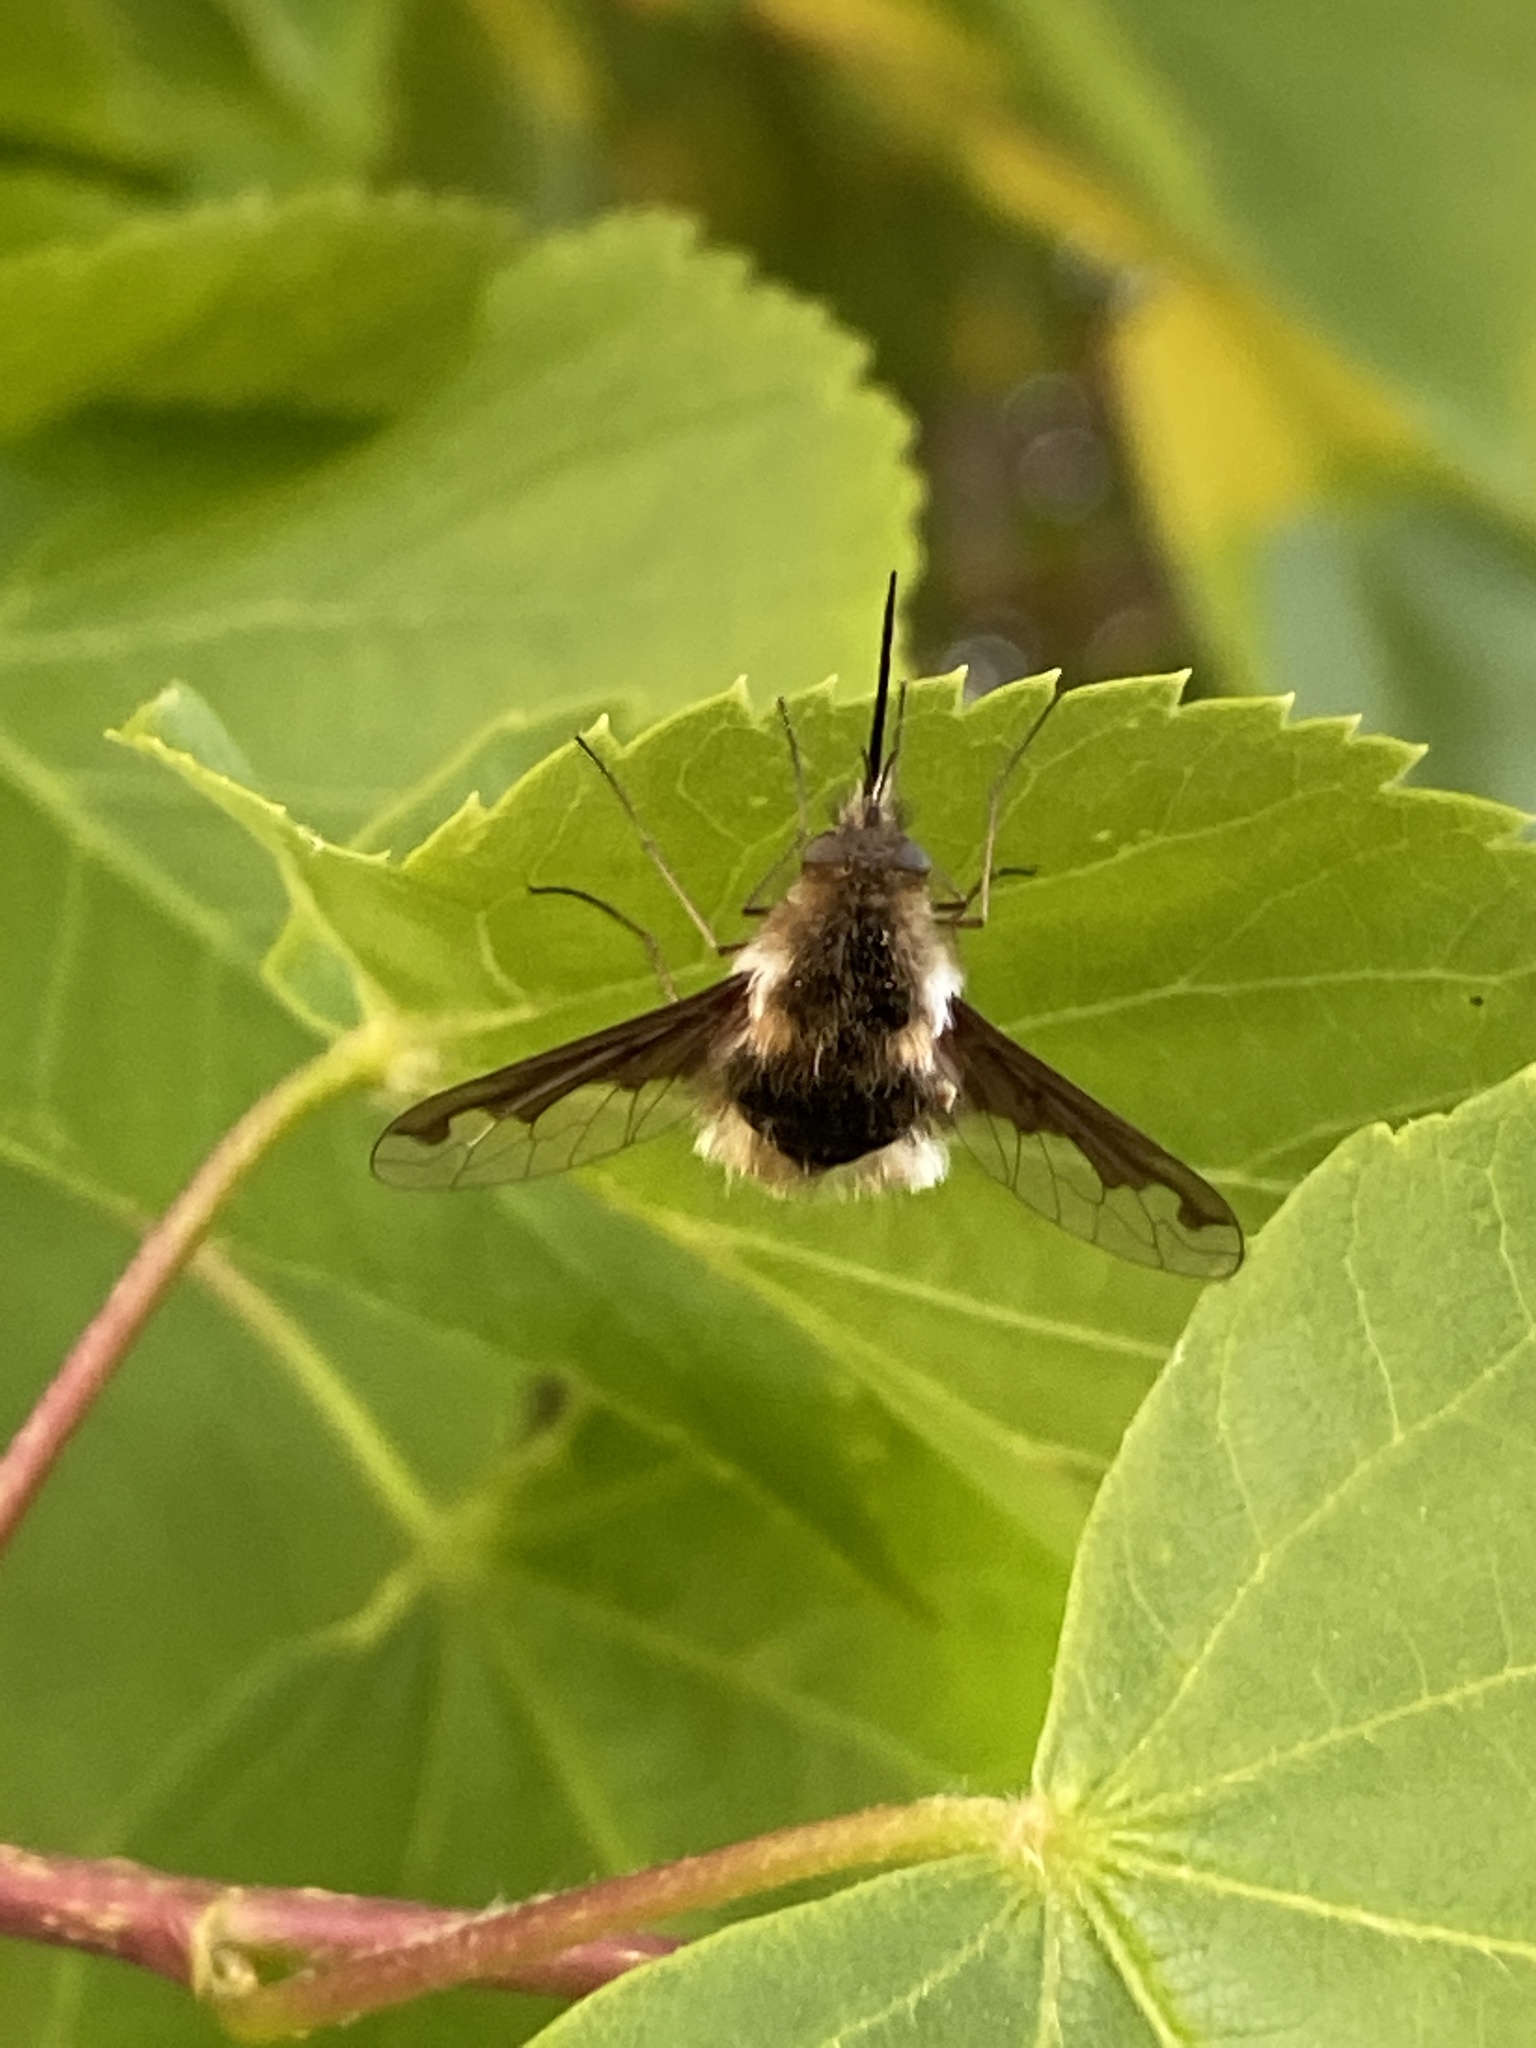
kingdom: Animalia
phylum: Arthropoda
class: Insecta
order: Diptera
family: Bombyliidae
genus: Bombylius
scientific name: Bombylius major
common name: Bee fly
